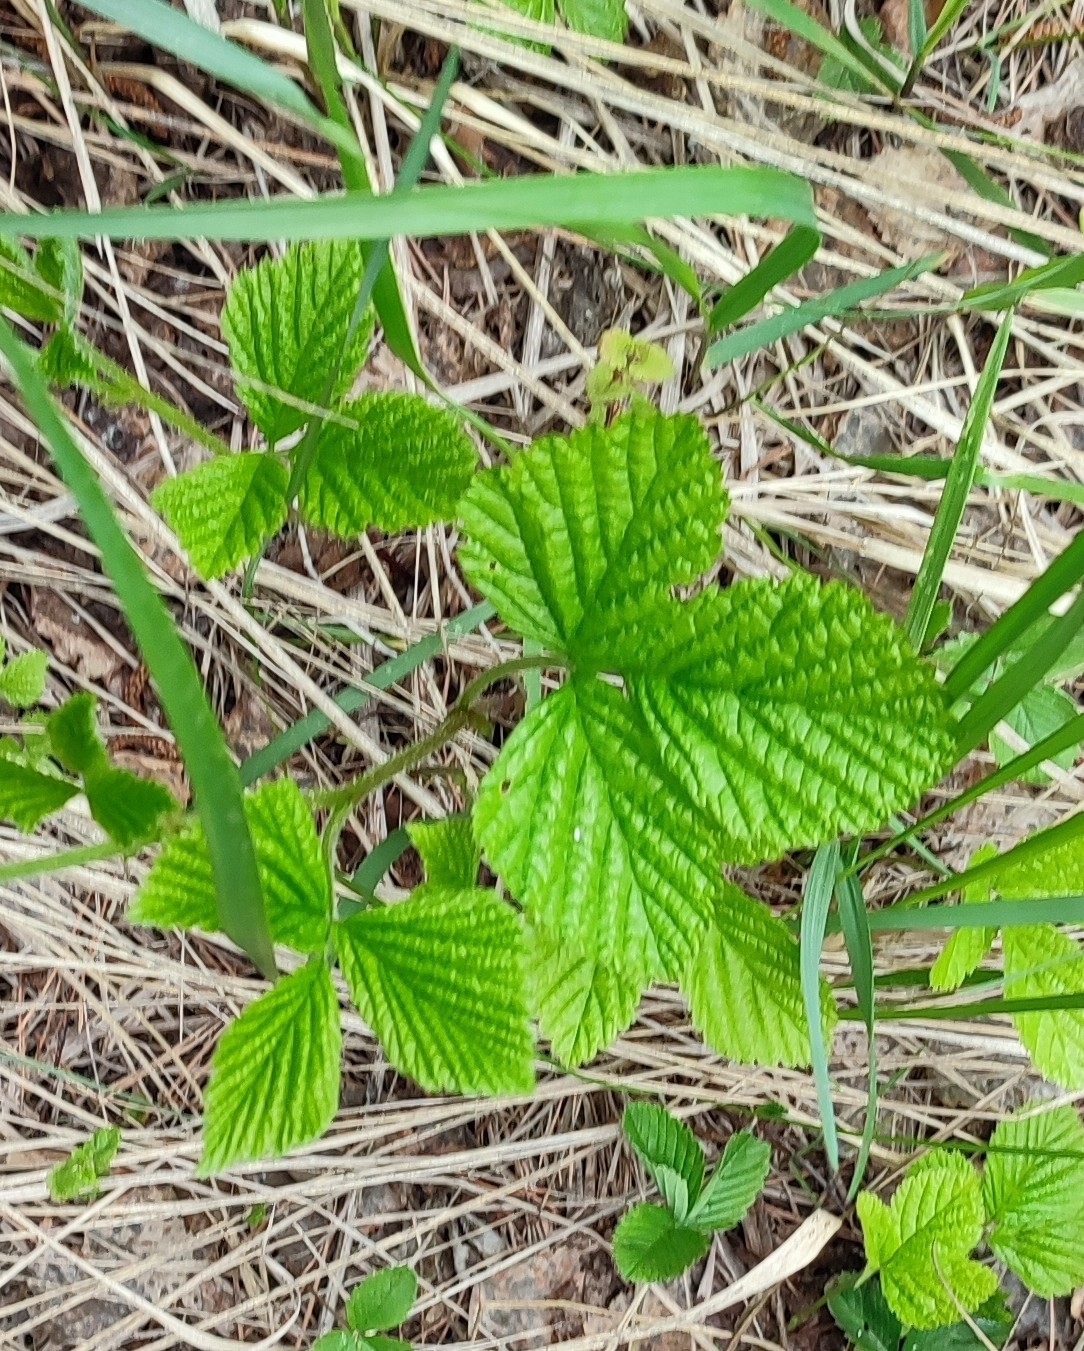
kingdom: Plantae
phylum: Tracheophyta
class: Magnoliopsida
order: Rosales
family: Rosaceae
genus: Rubus
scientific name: Rubus idaeus
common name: Raspberry
